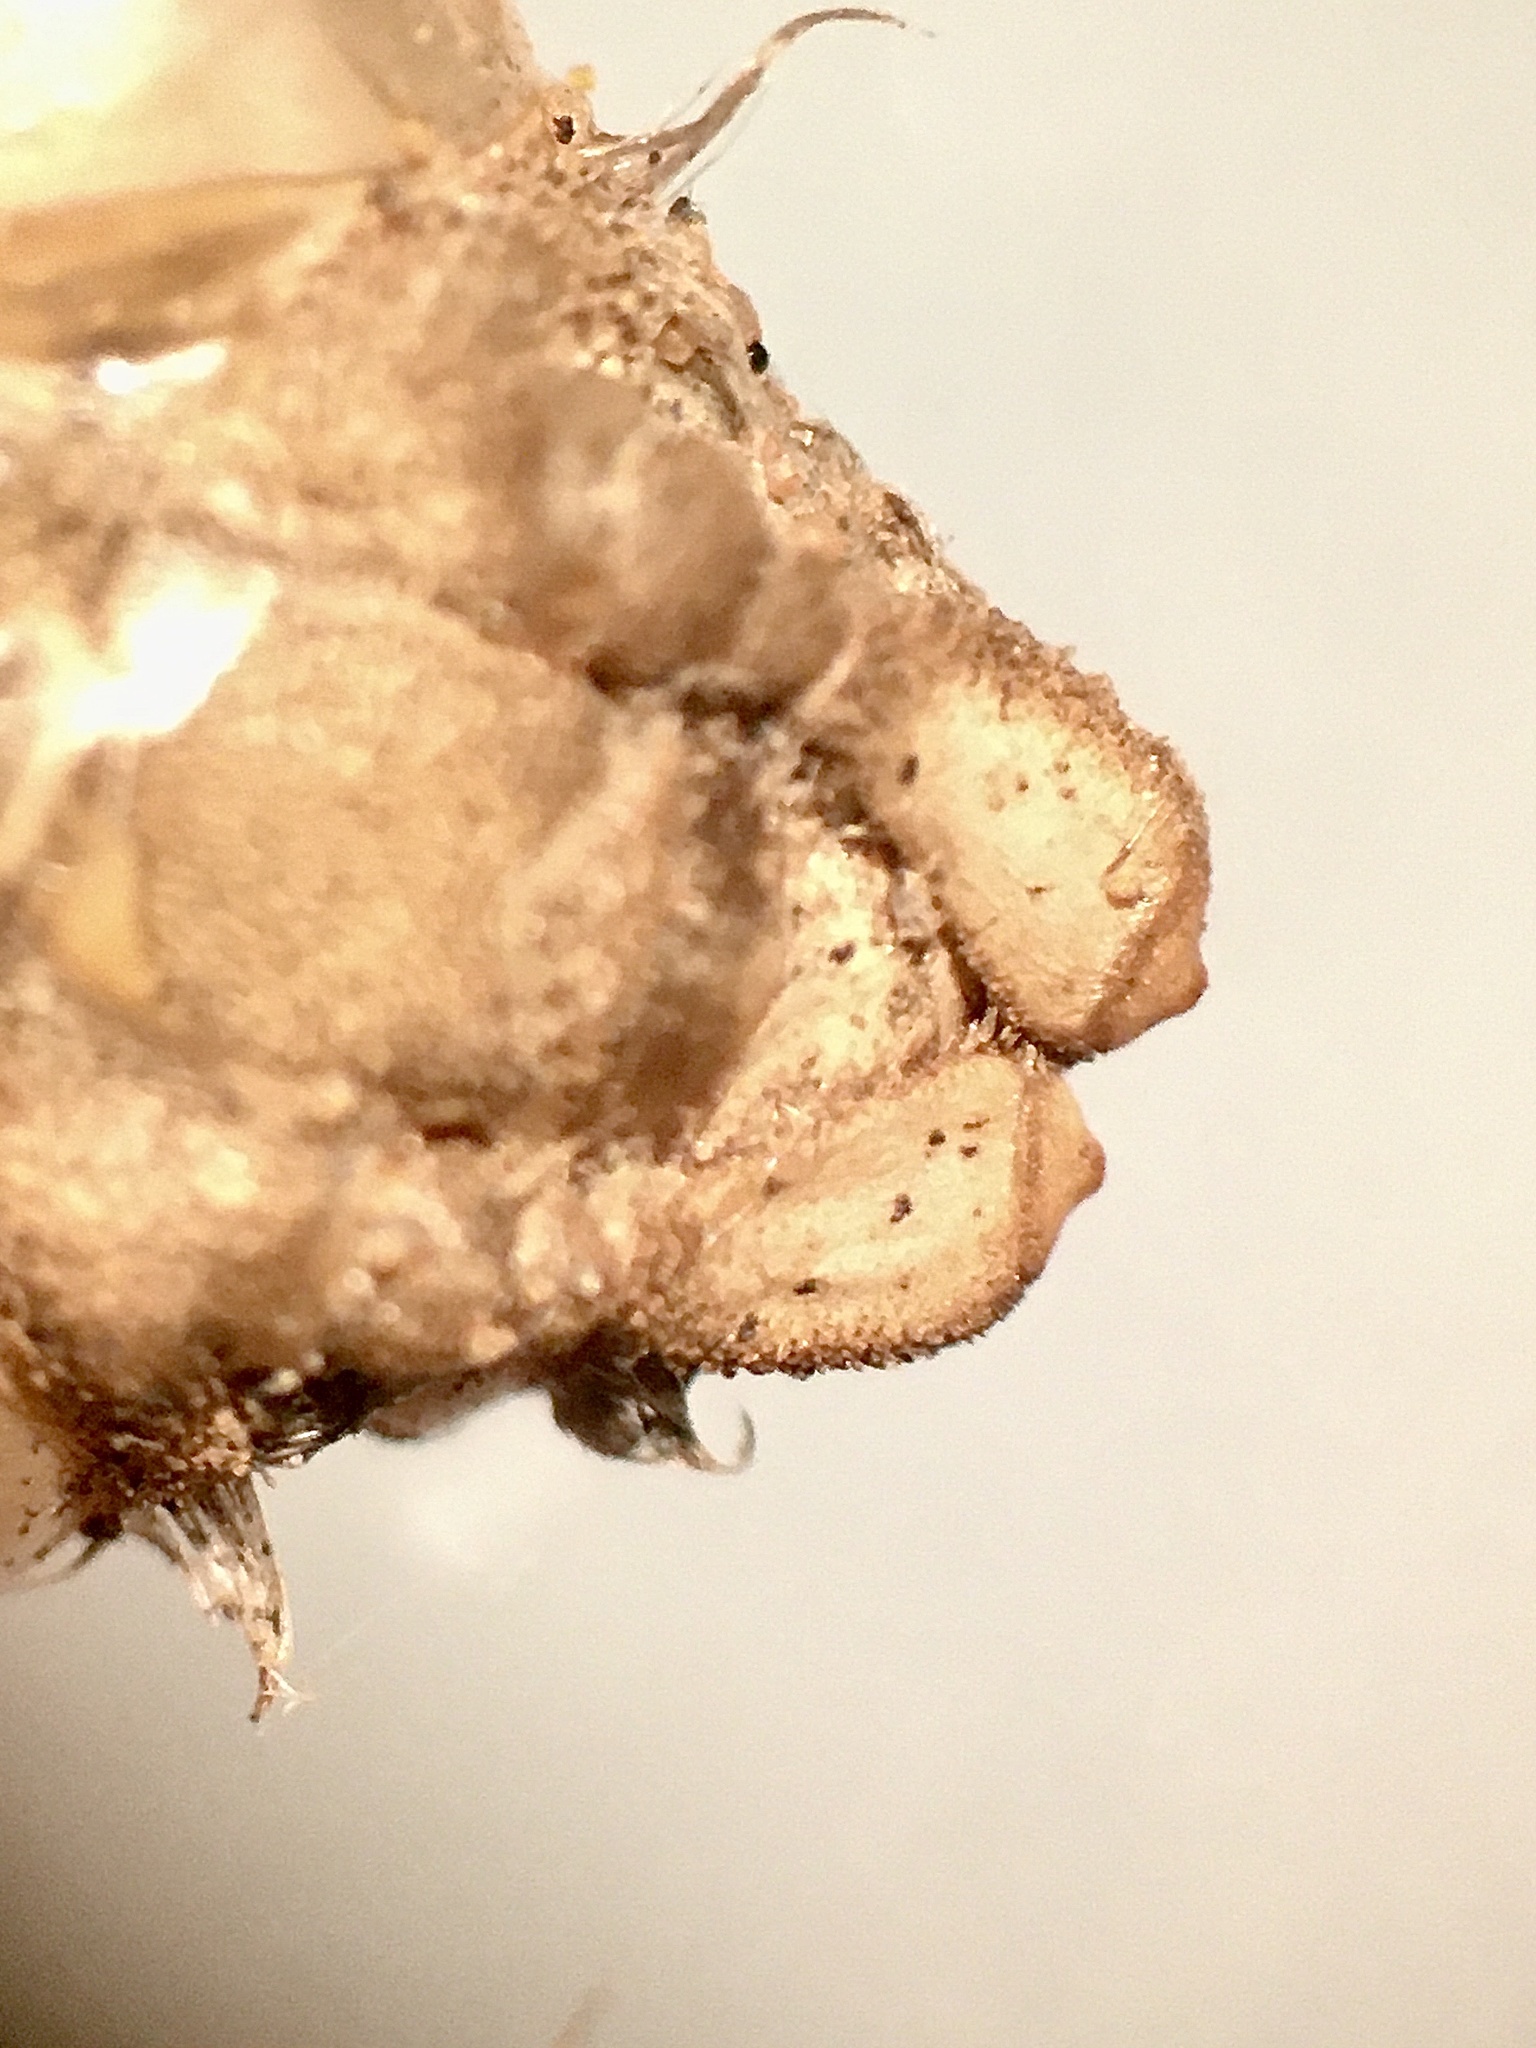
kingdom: Animalia
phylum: Arthropoda
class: Insecta
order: Odonata
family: Gomphidae
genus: Ophiogomphus
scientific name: Ophiogomphus susbehcha
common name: Saint croix snaketail
